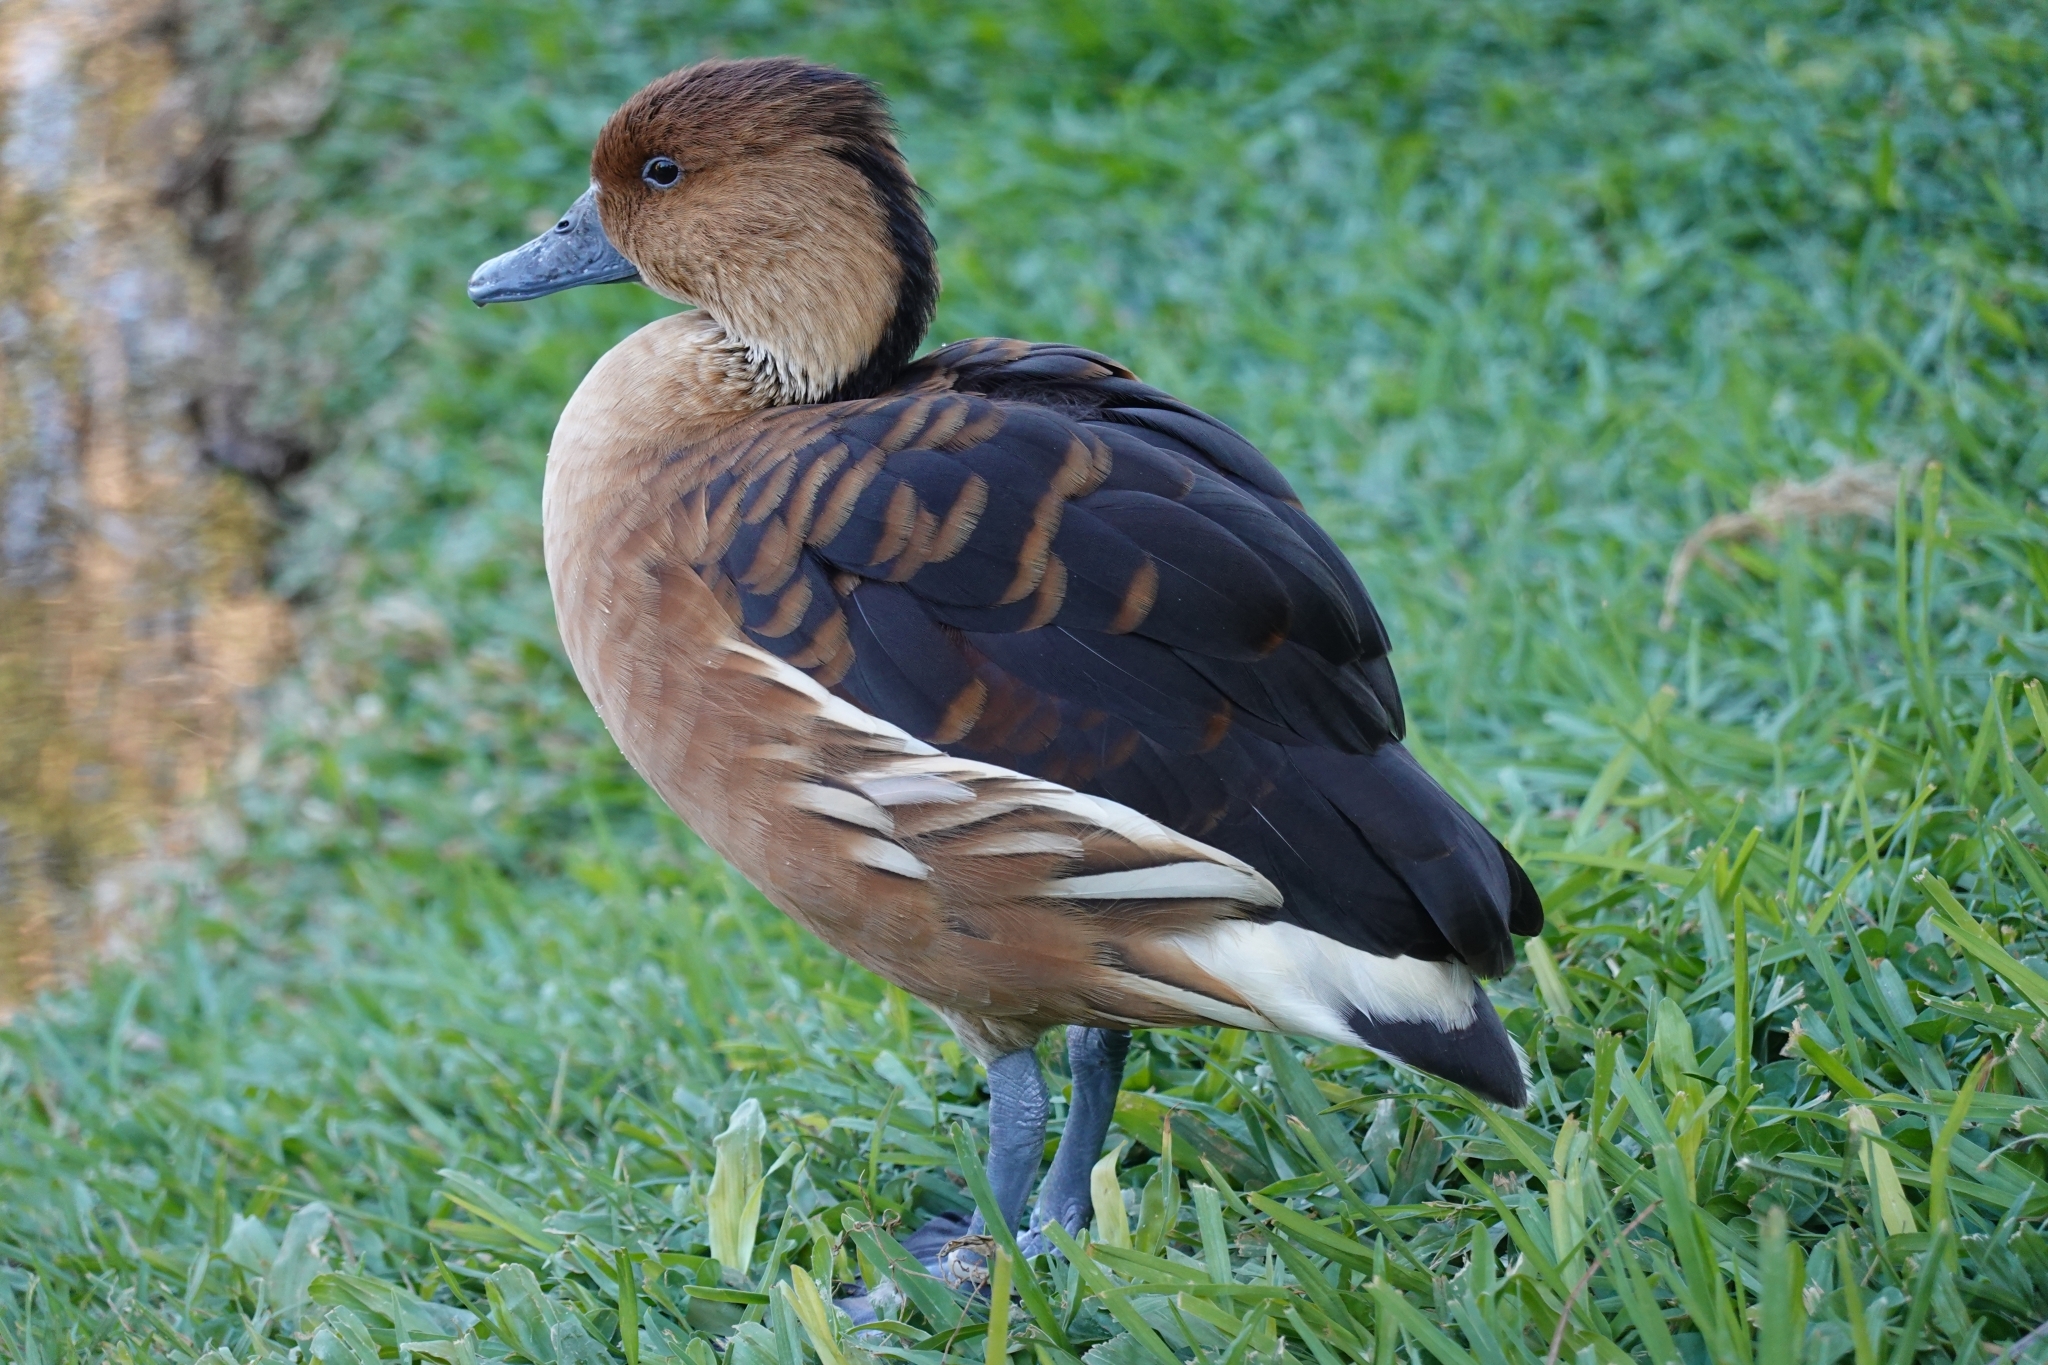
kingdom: Animalia
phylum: Chordata
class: Aves
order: Anseriformes
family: Anatidae
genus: Dendrocygna
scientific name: Dendrocygna bicolor
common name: Fulvous whistling duck
